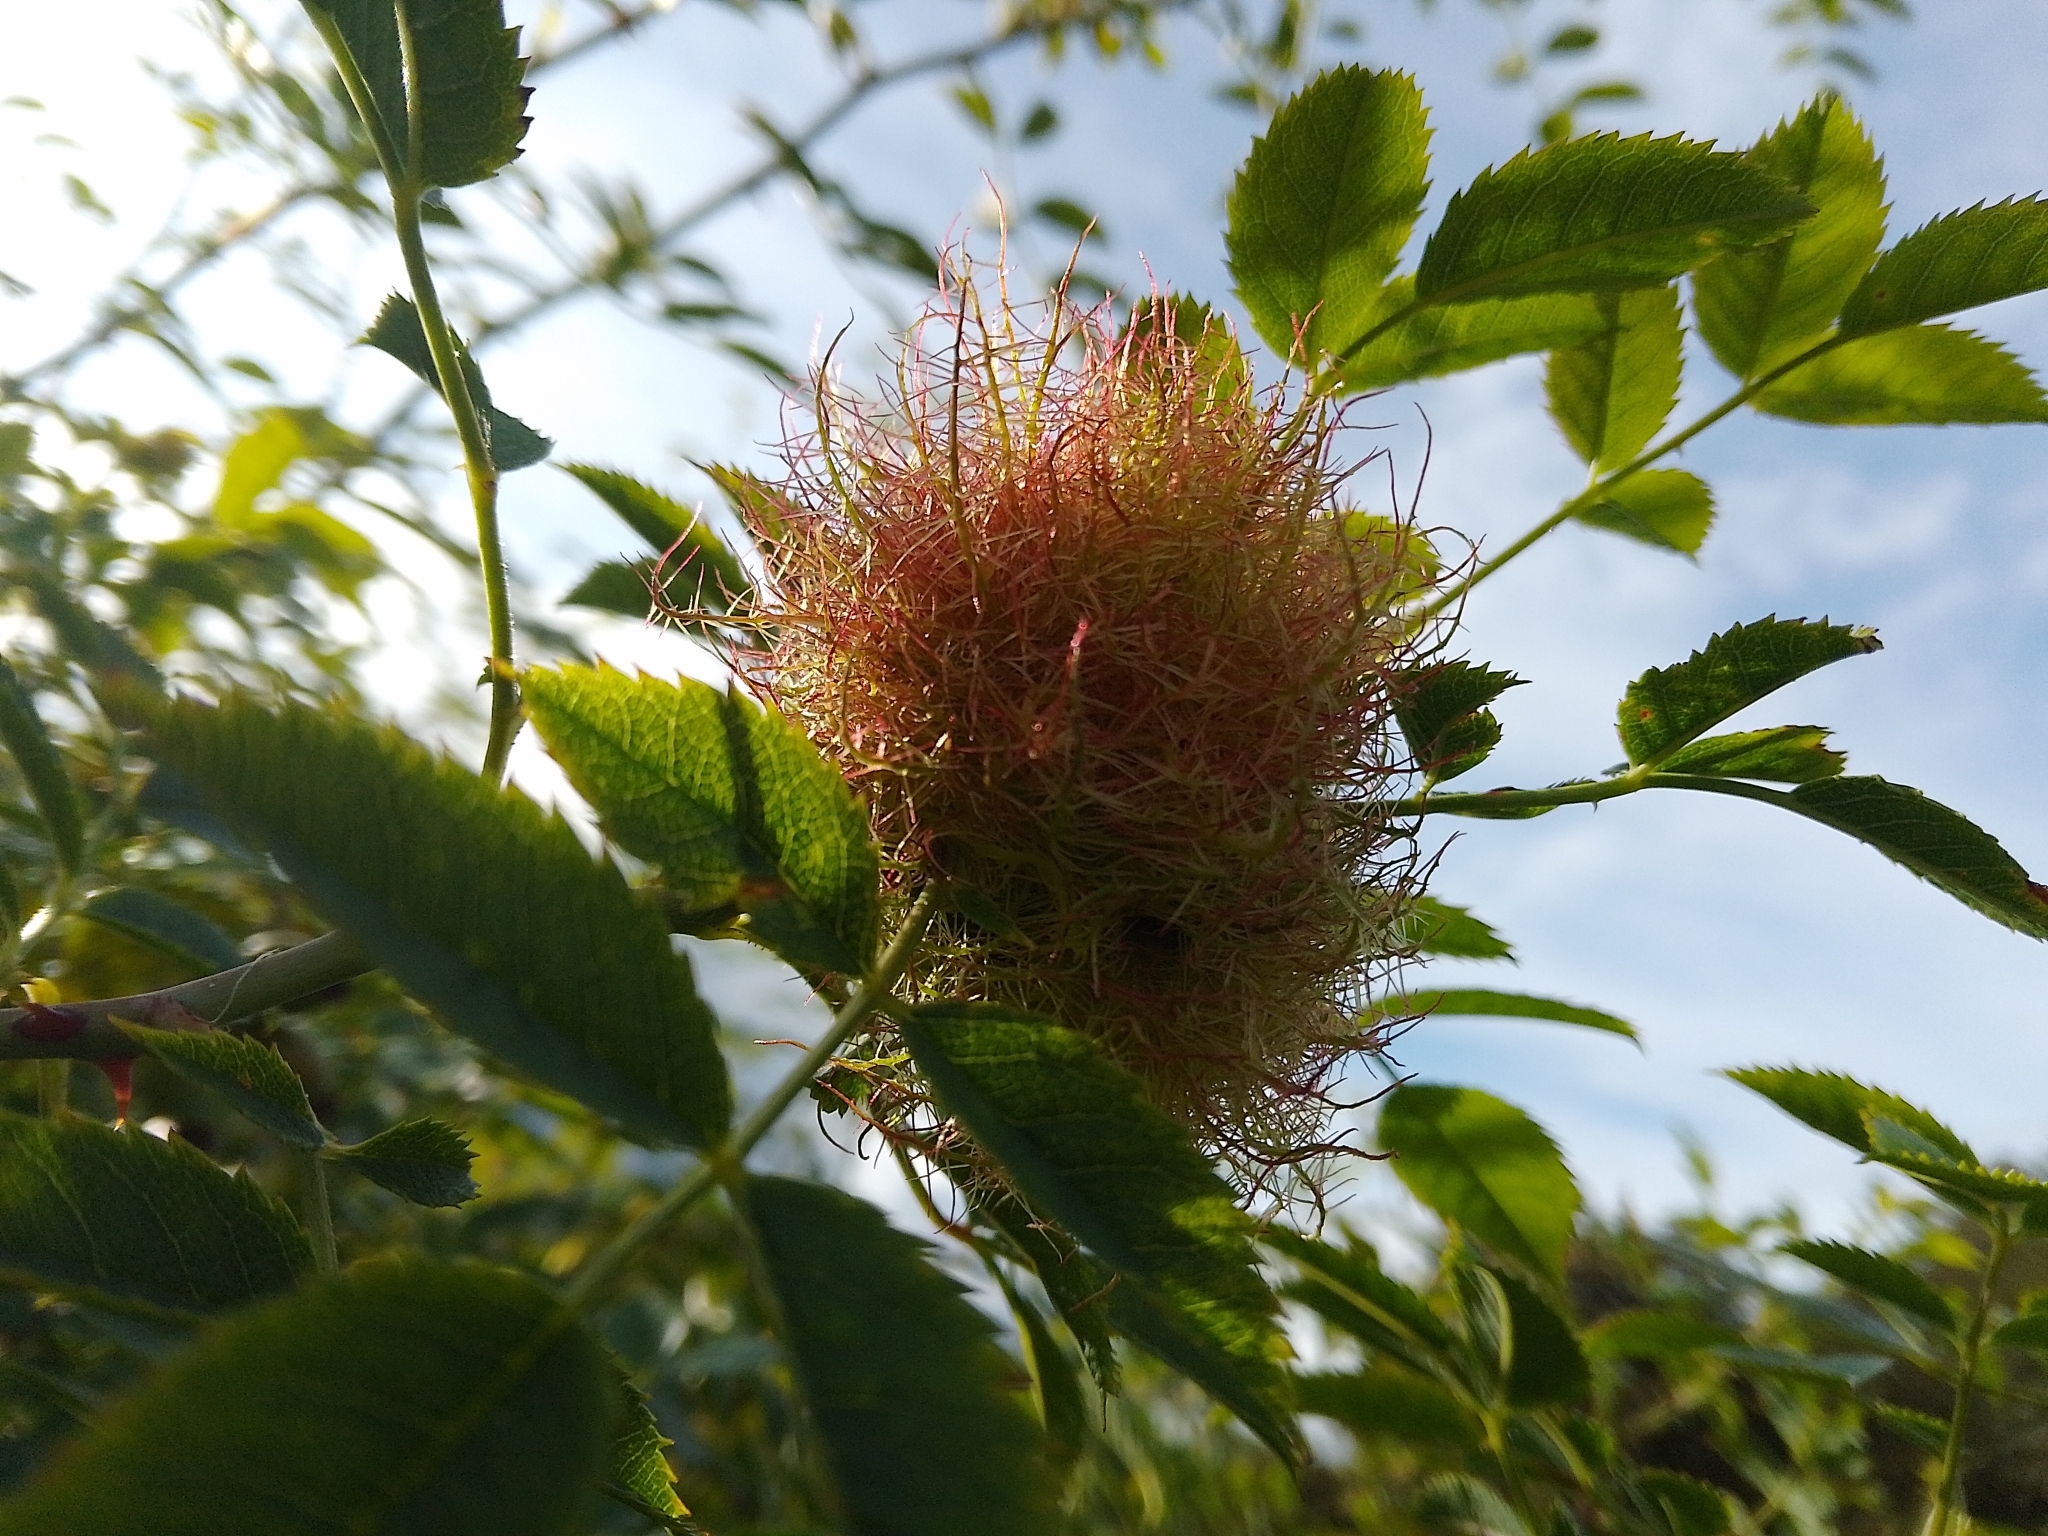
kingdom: Animalia
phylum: Arthropoda
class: Insecta
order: Hymenoptera
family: Cynipidae
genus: Diplolepis
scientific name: Diplolepis rosae
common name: Bedeguar gall
